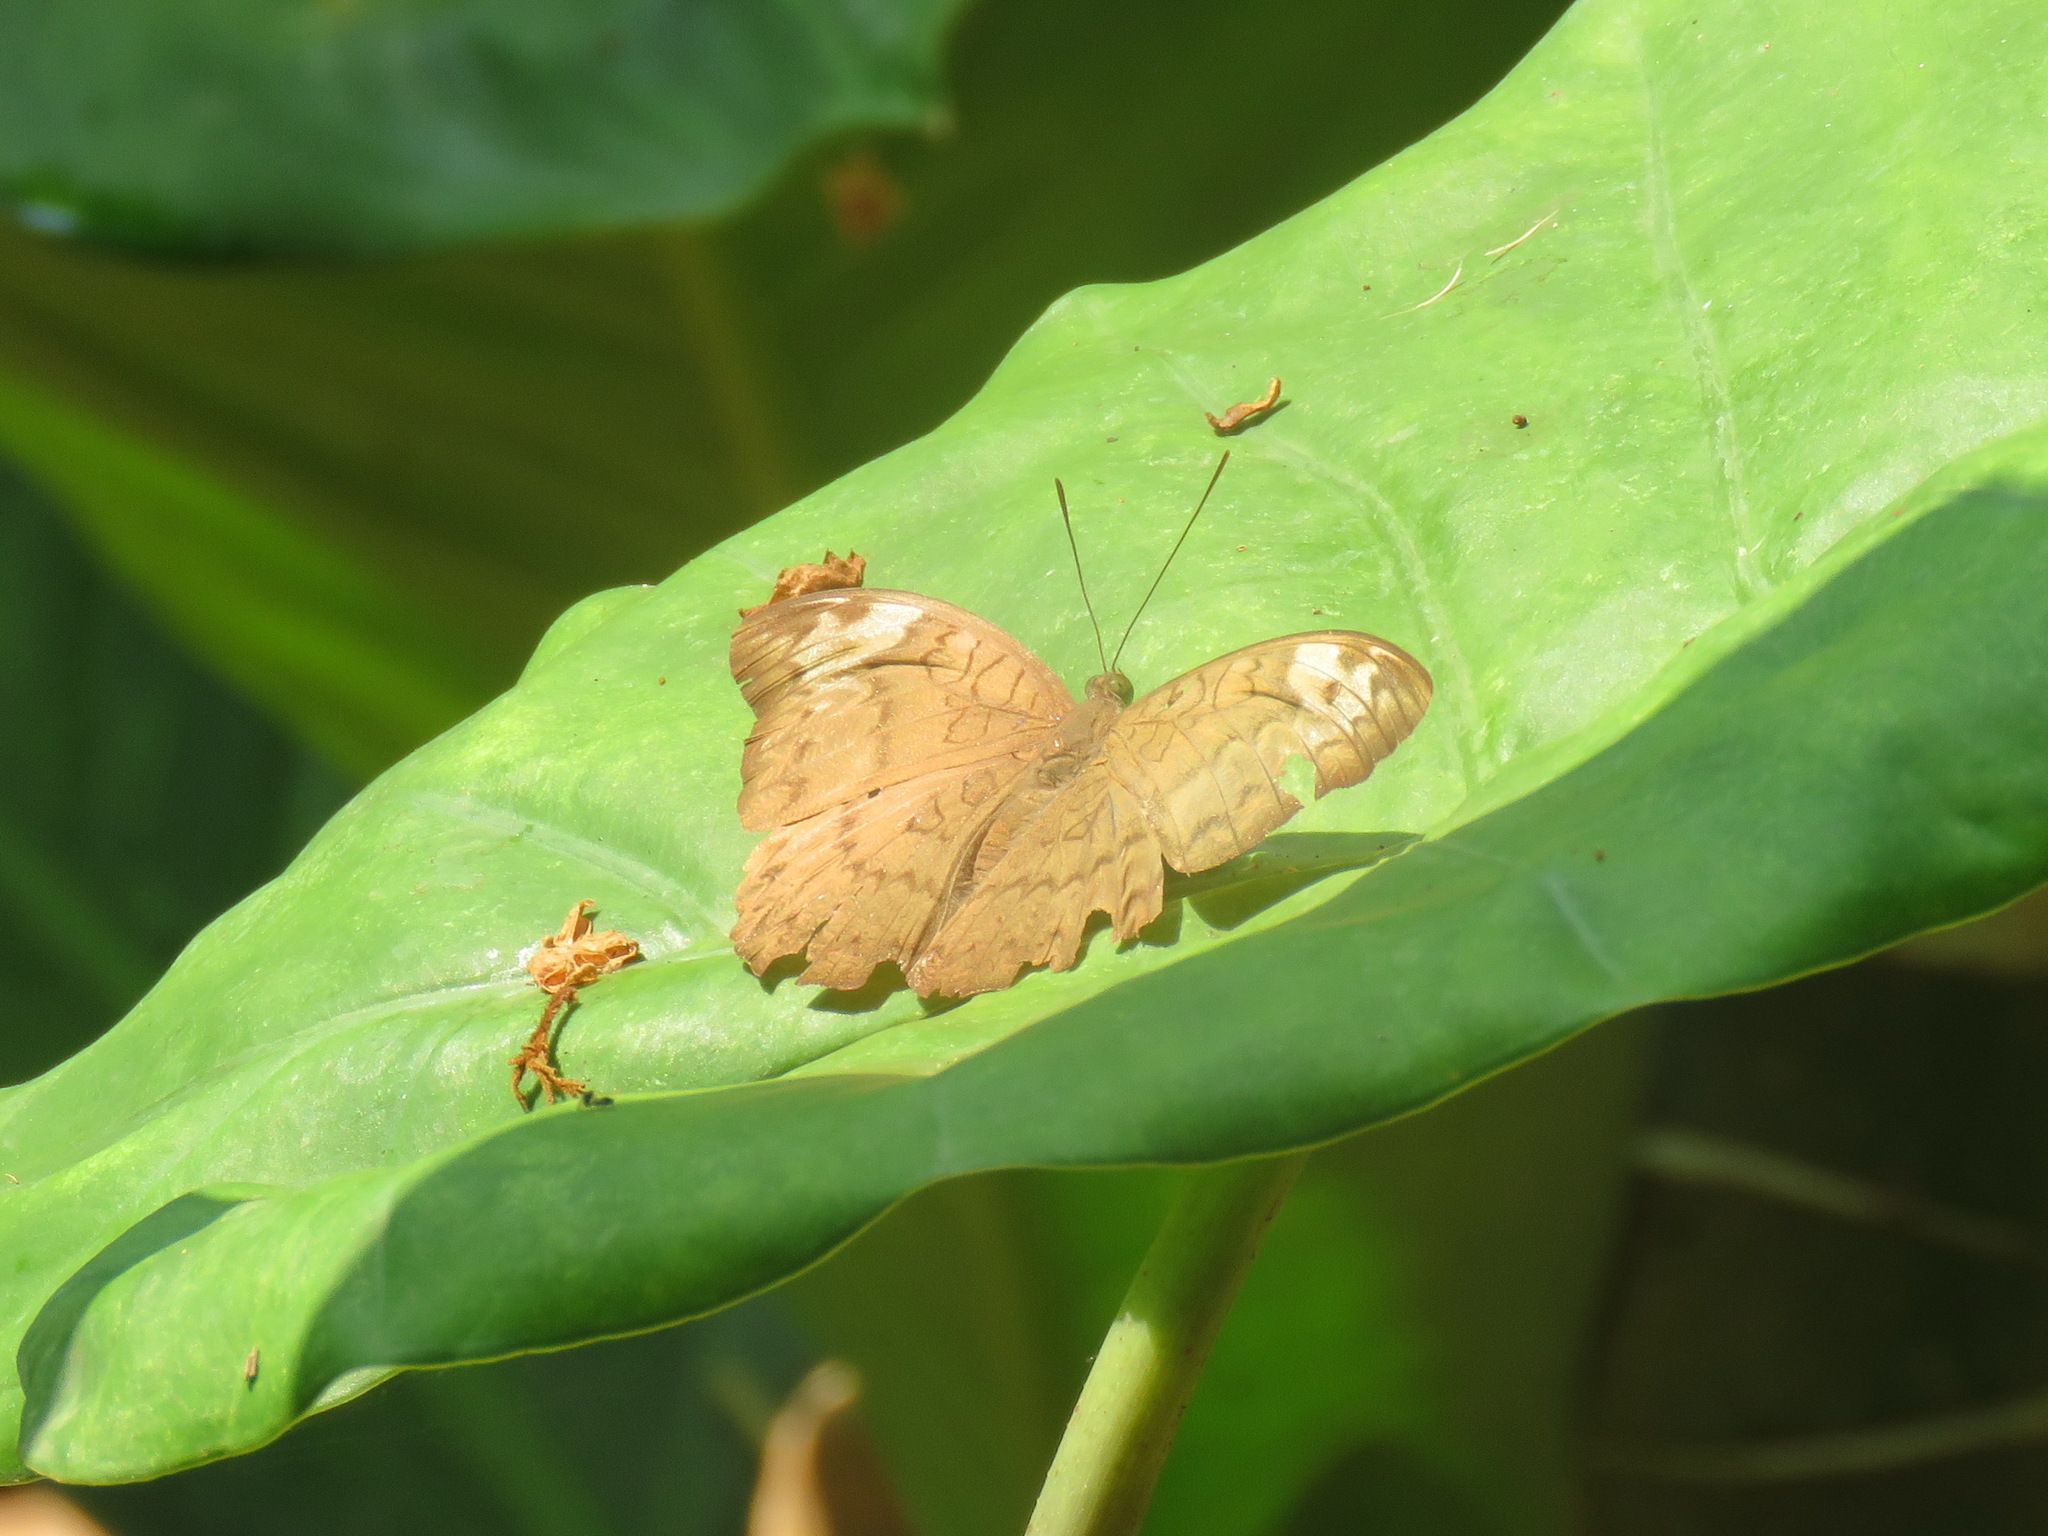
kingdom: Animalia
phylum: Arthropoda
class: Insecta
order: Lepidoptera
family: Nymphalidae
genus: Tanaecia
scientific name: Tanaecia jahnu
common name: Plain earl
